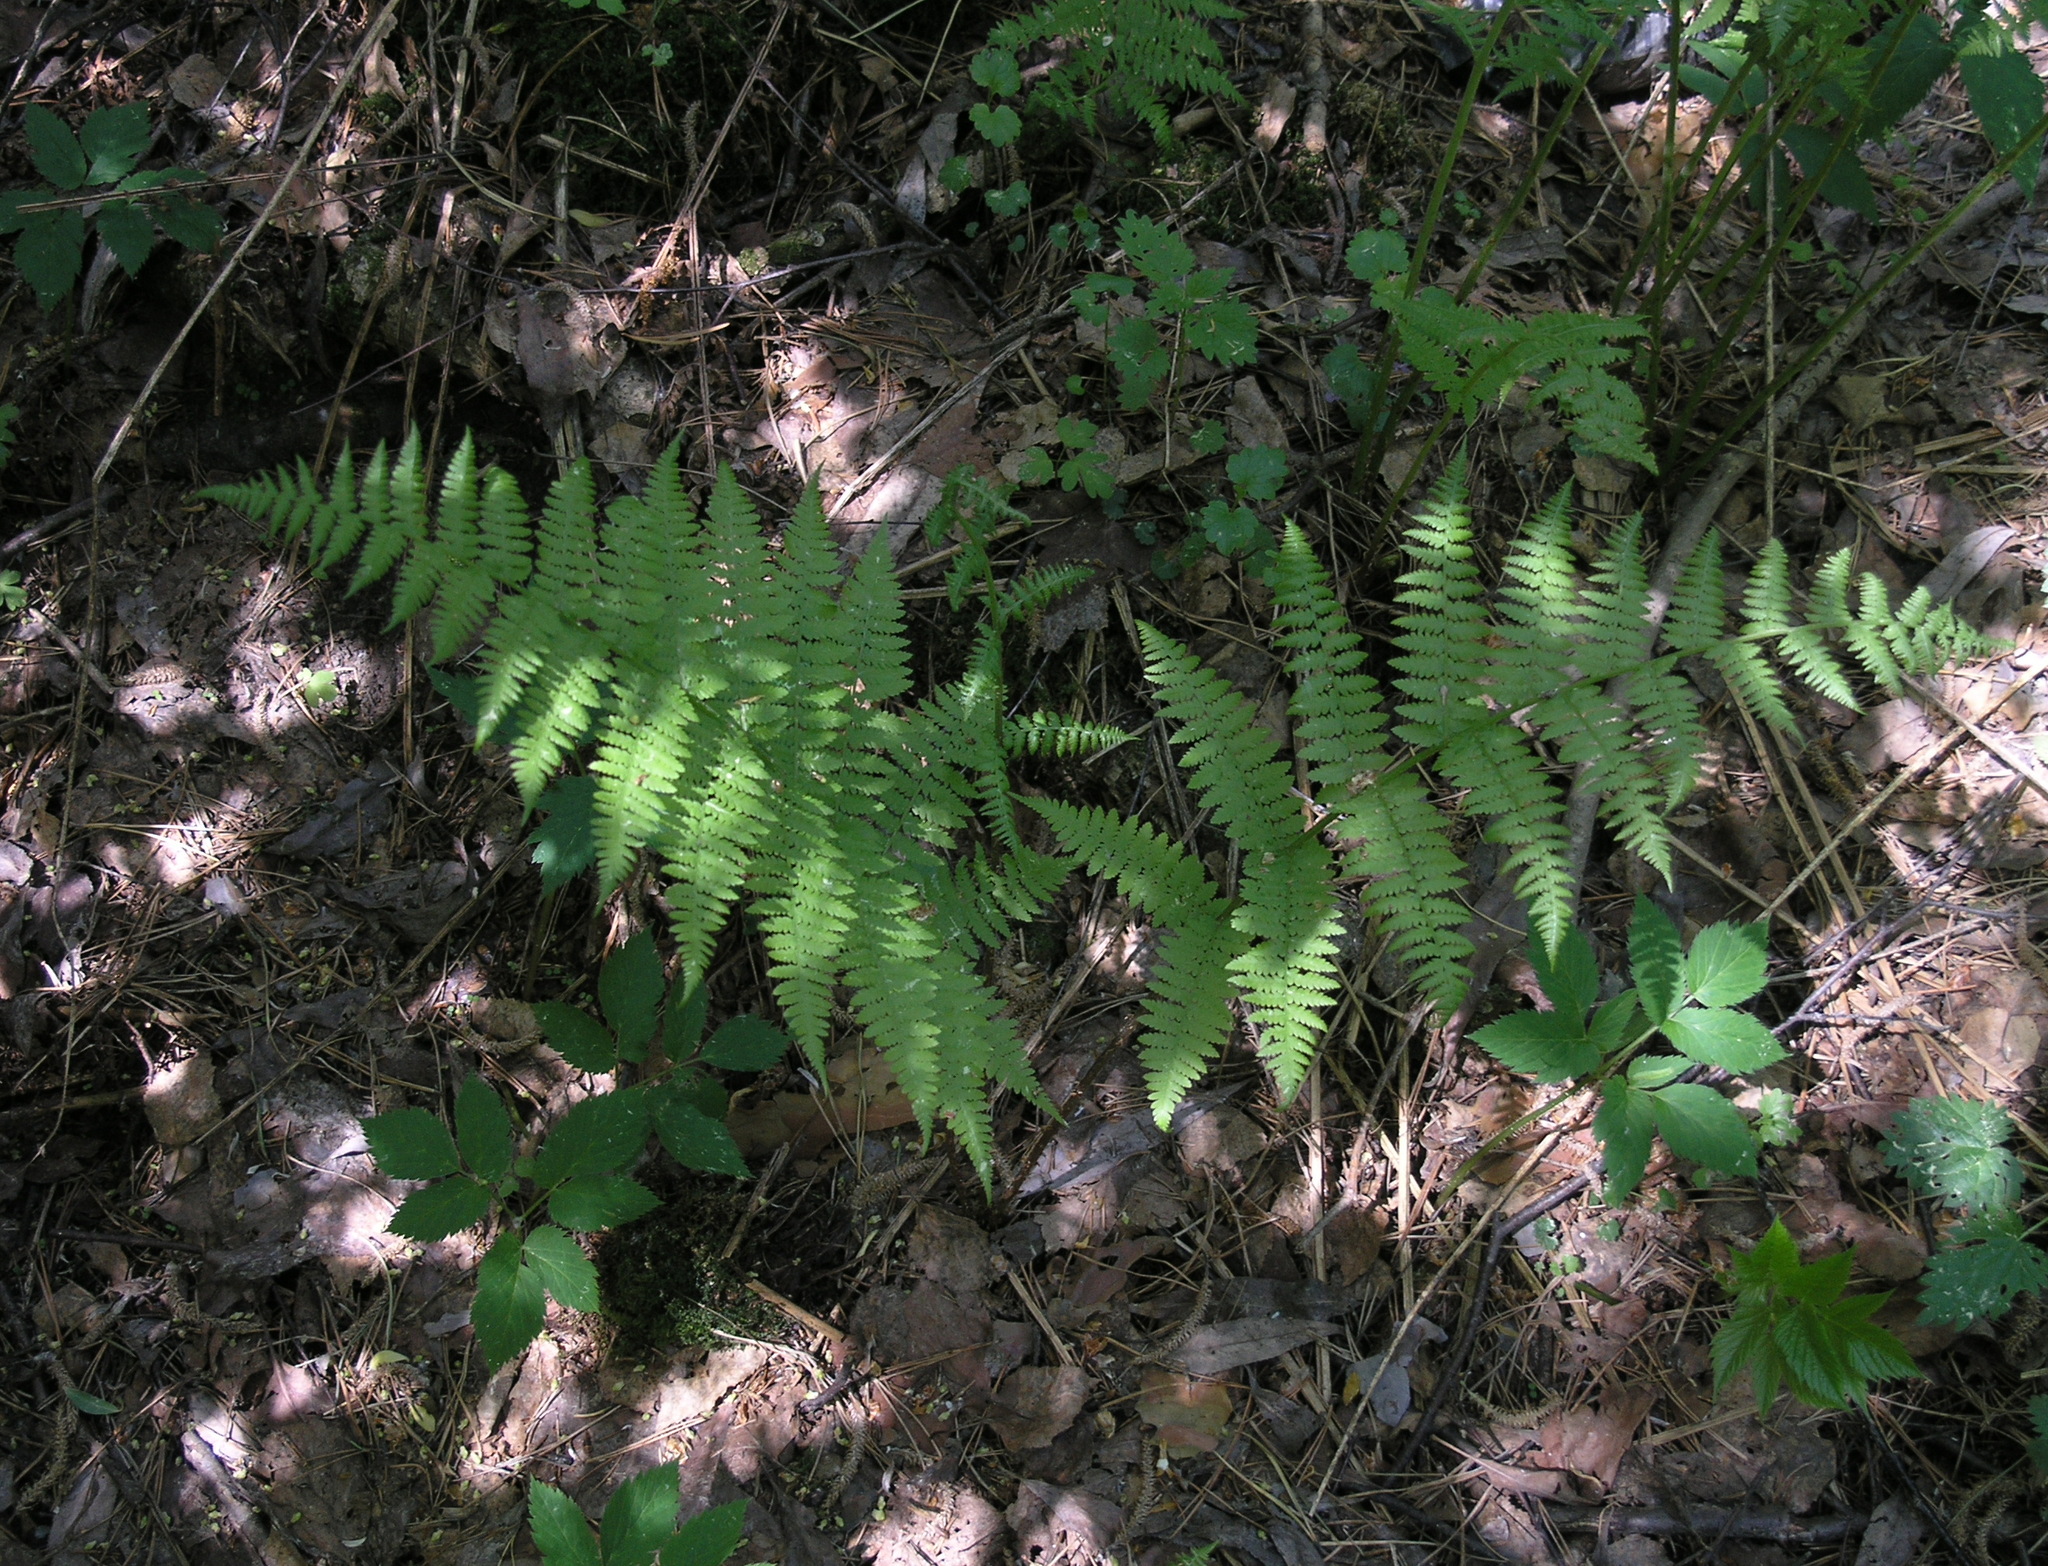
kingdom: Plantae
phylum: Tracheophyta
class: Polypodiopsida
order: Polypodiales
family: Athyriaceae
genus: Athyrium
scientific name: Athyrium filix-femina
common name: Lady fern
